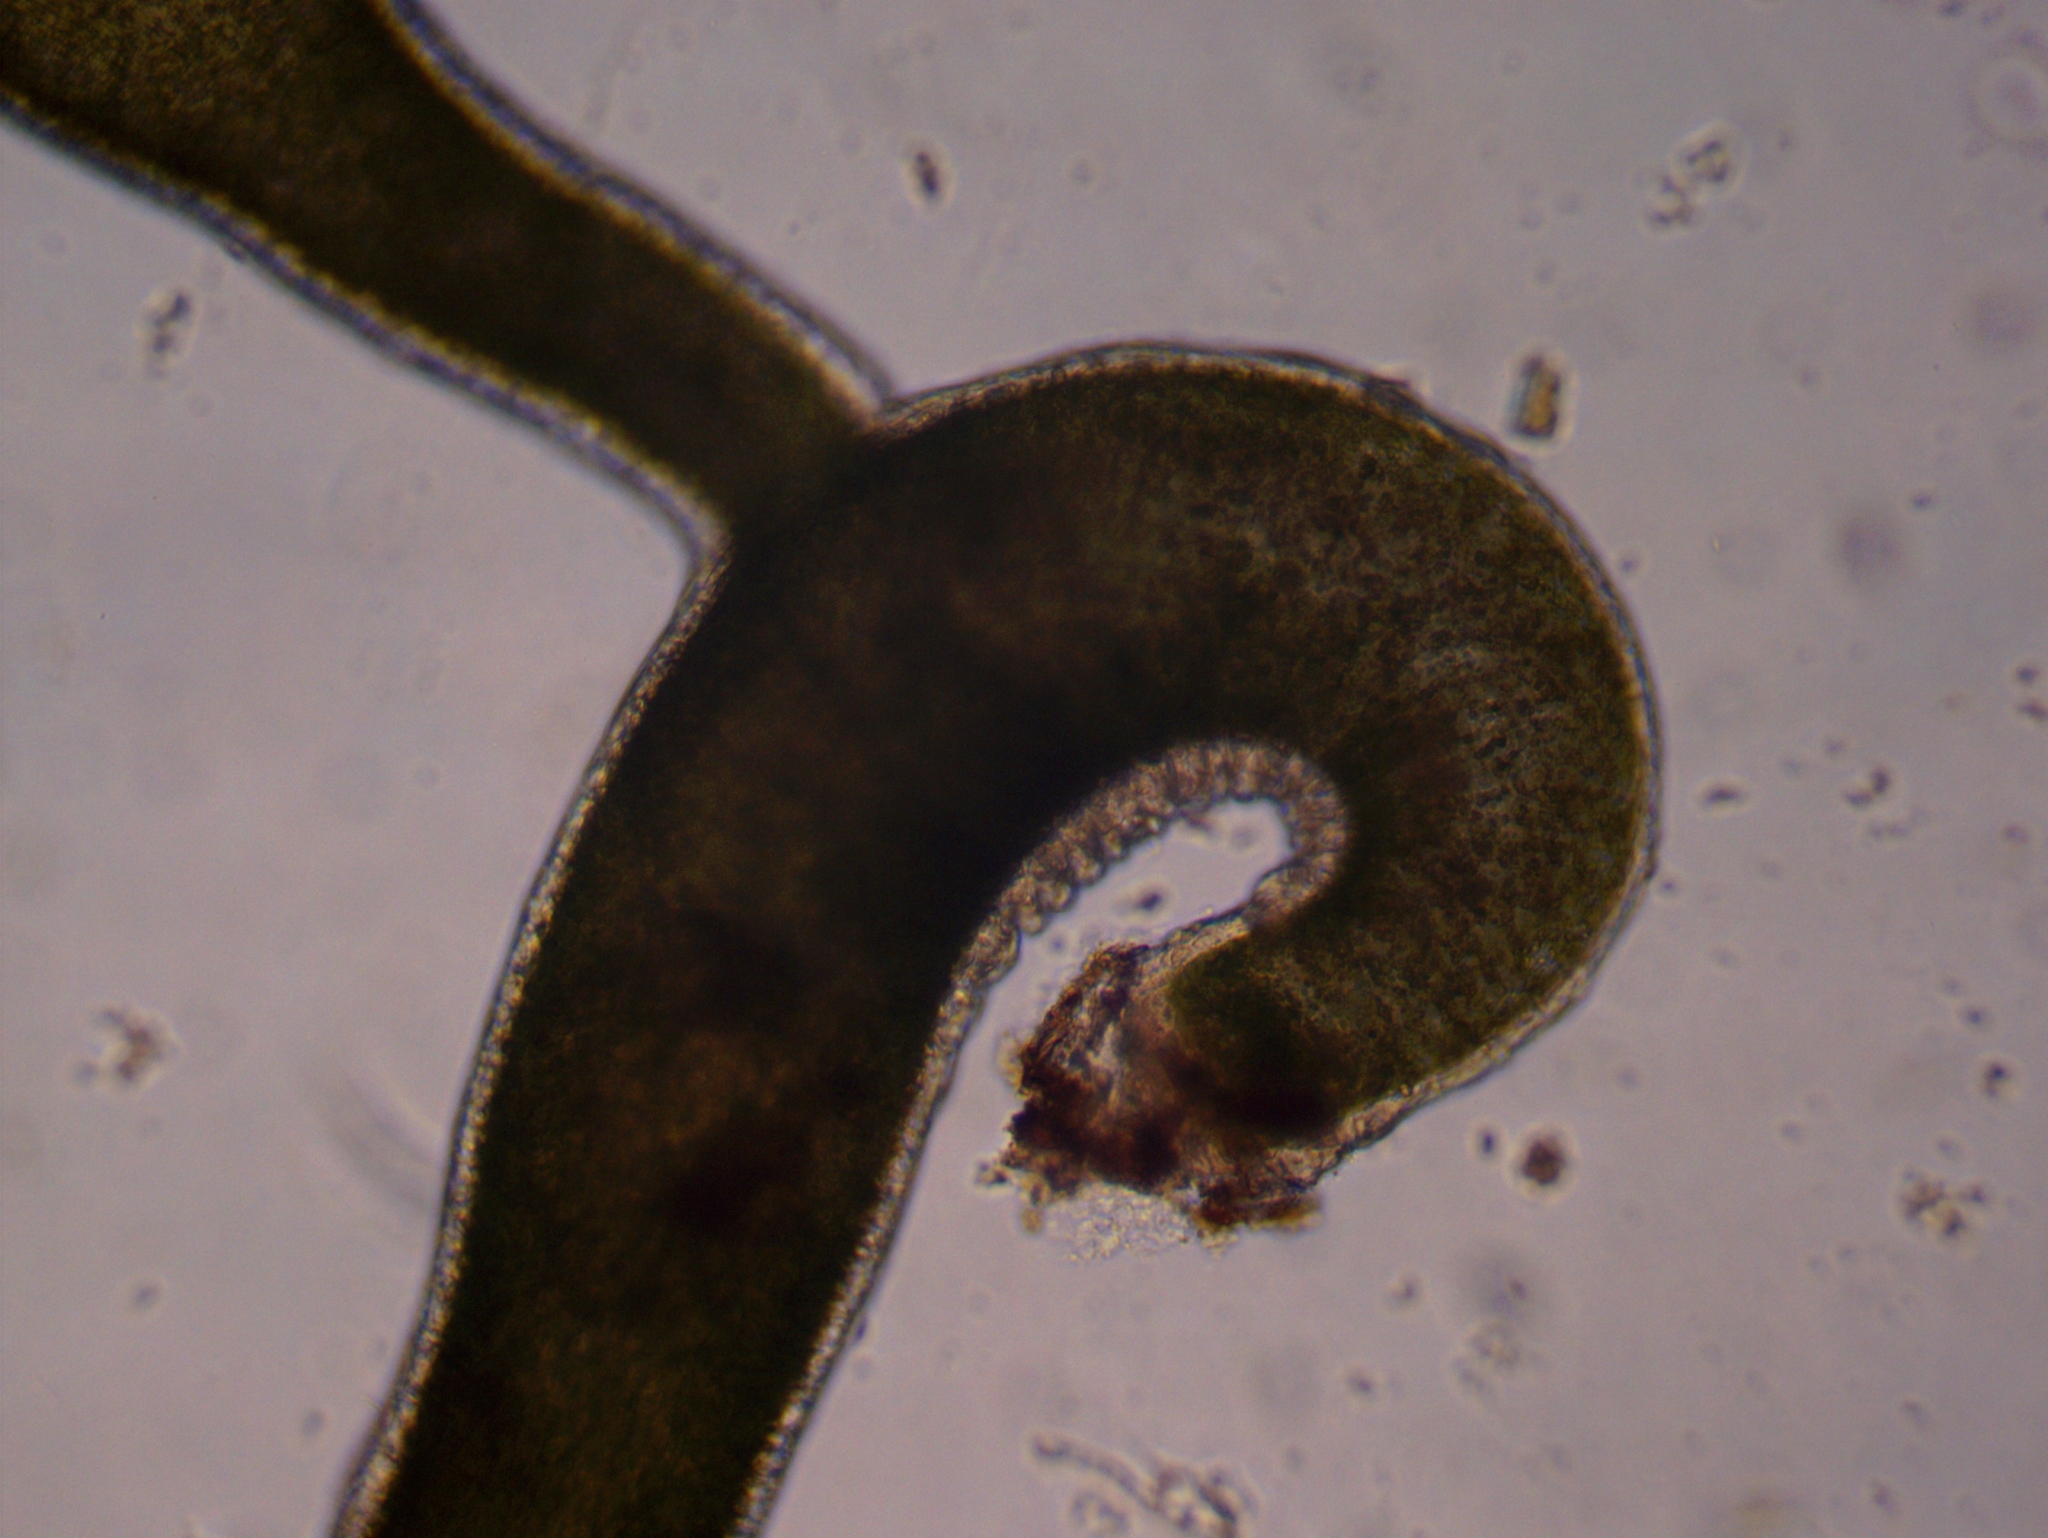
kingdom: Animalia
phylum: Cnidaria
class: Hydrozoa
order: Anthoathecata
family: Hydridae
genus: Hydra
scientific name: Hydra viridissima
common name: Green hydra
